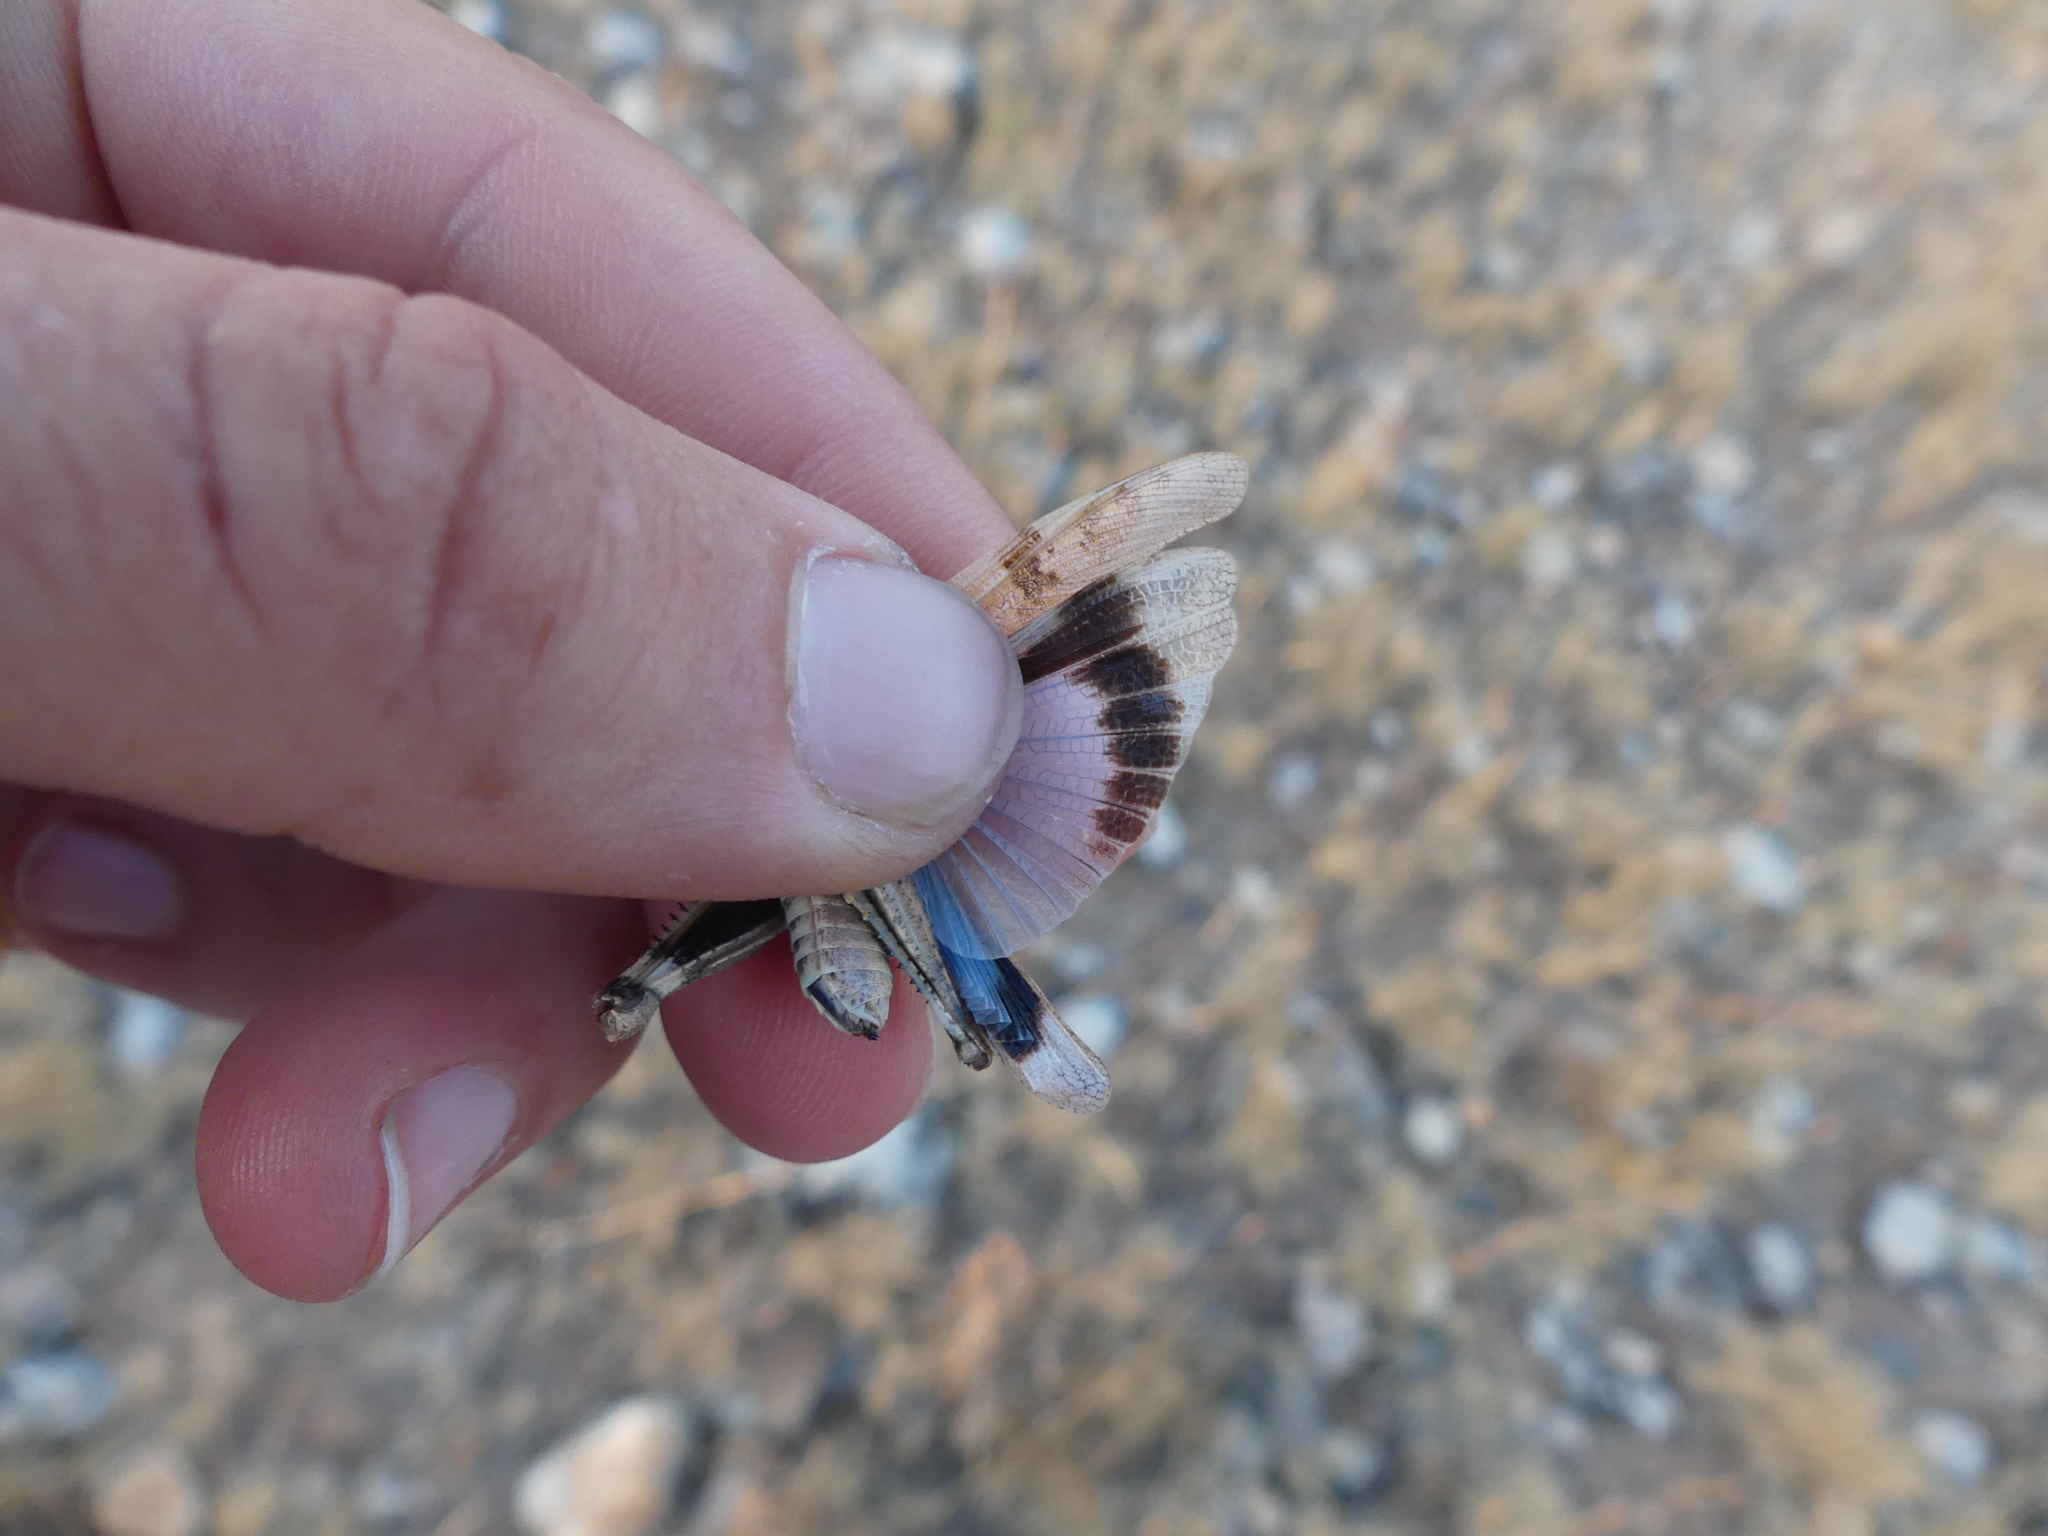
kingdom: Animalia
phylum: Arthropoda
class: Insecta
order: Orthoptera
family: Acrididae
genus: Oedipoda
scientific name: Oedipoda charpentieri
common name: Western band-winged grasshopper
